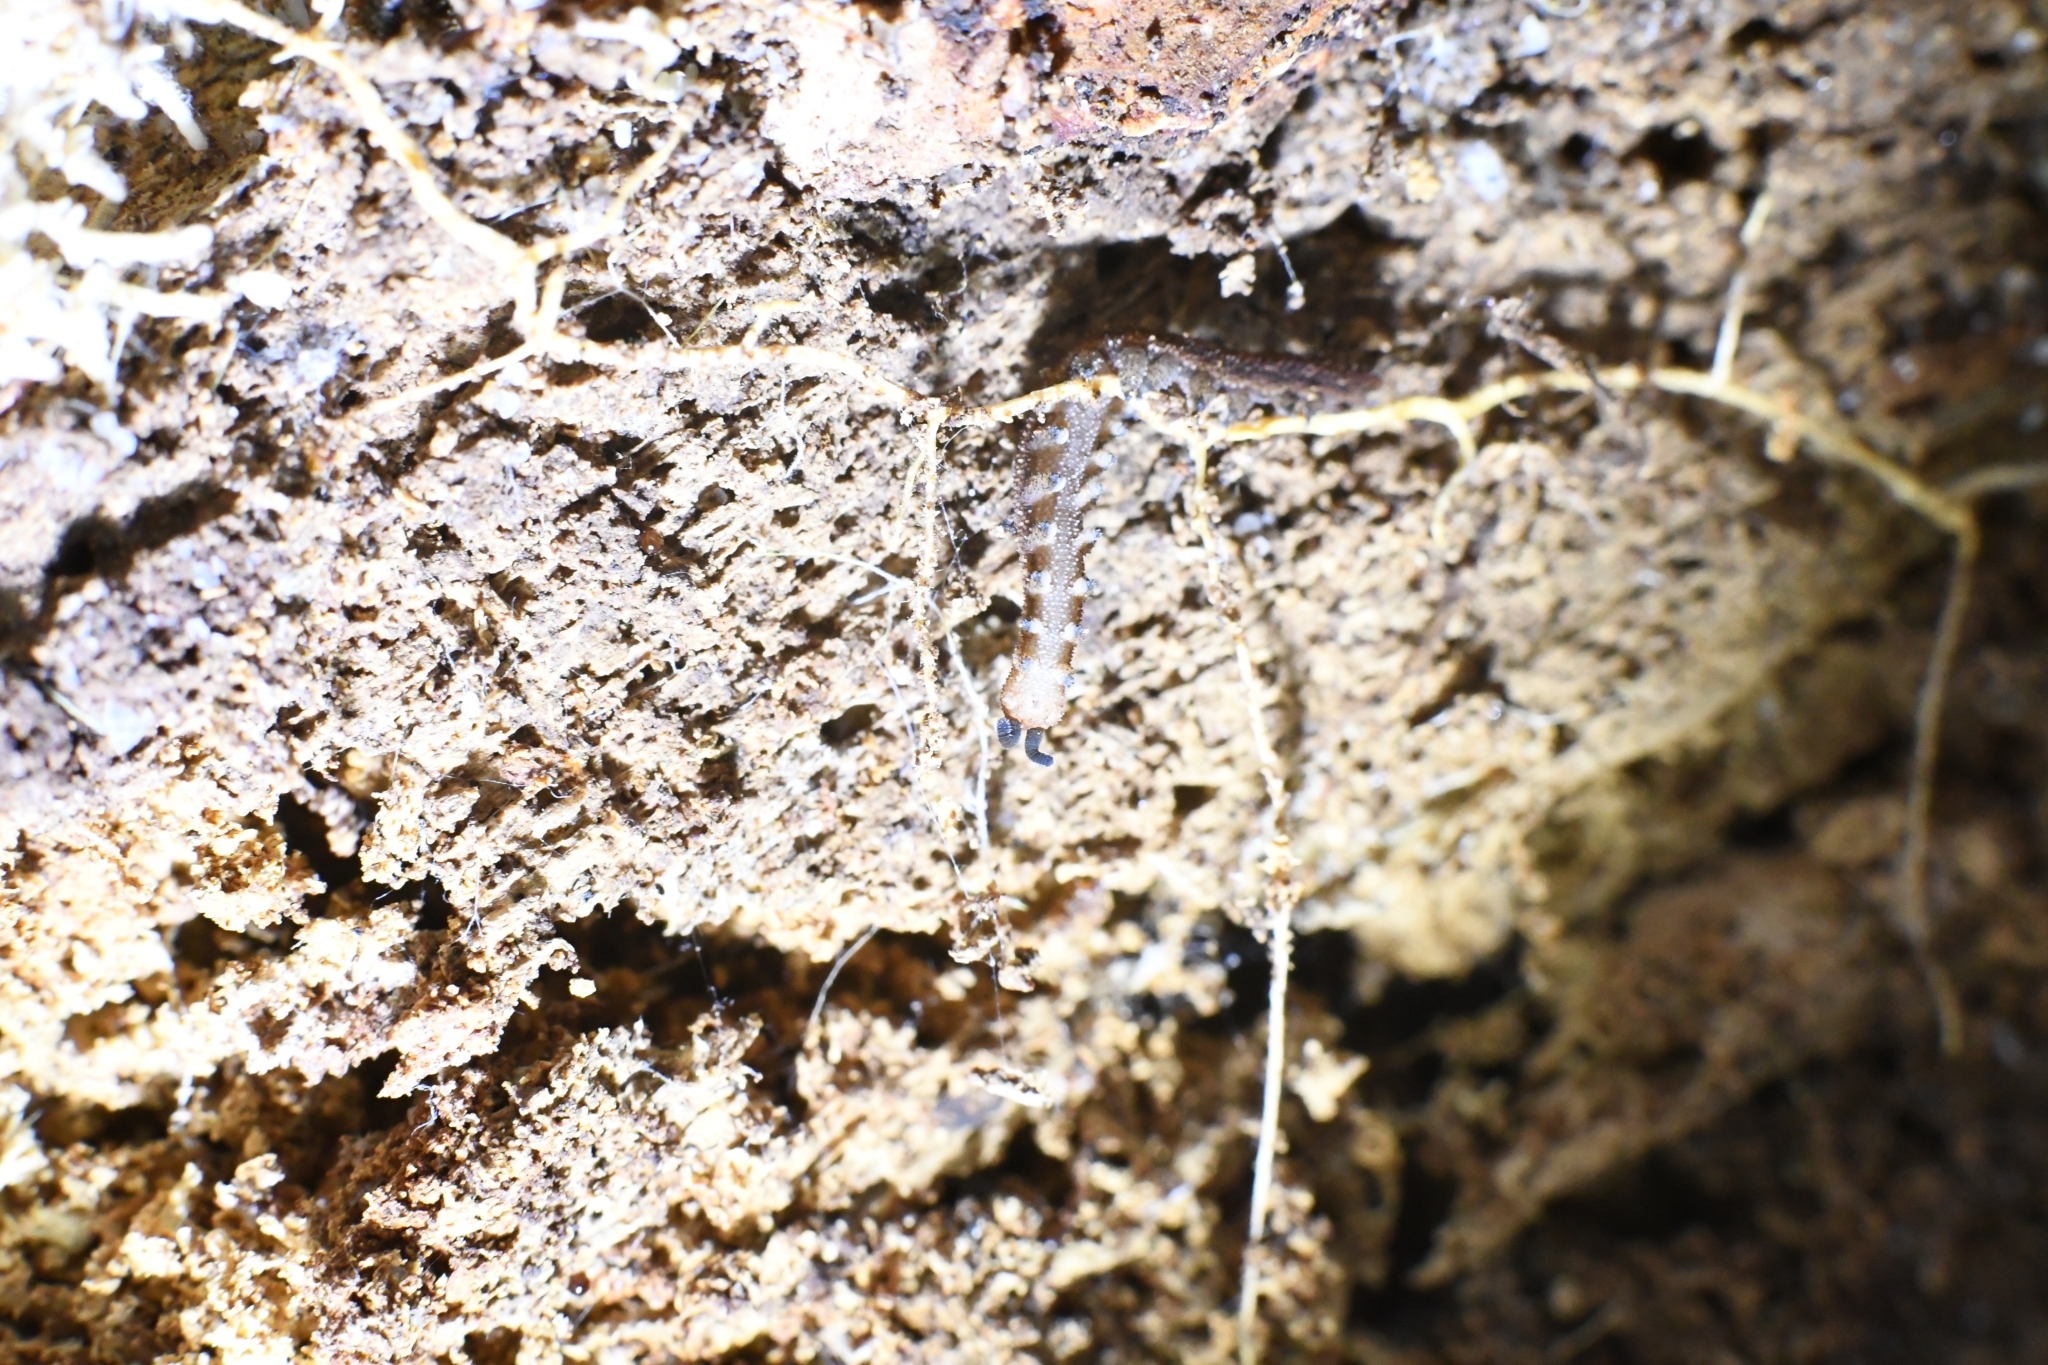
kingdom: Animalia
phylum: Onychophora
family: Peripatopsidae
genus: Kumbadjena
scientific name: Kumbadjena extrema
